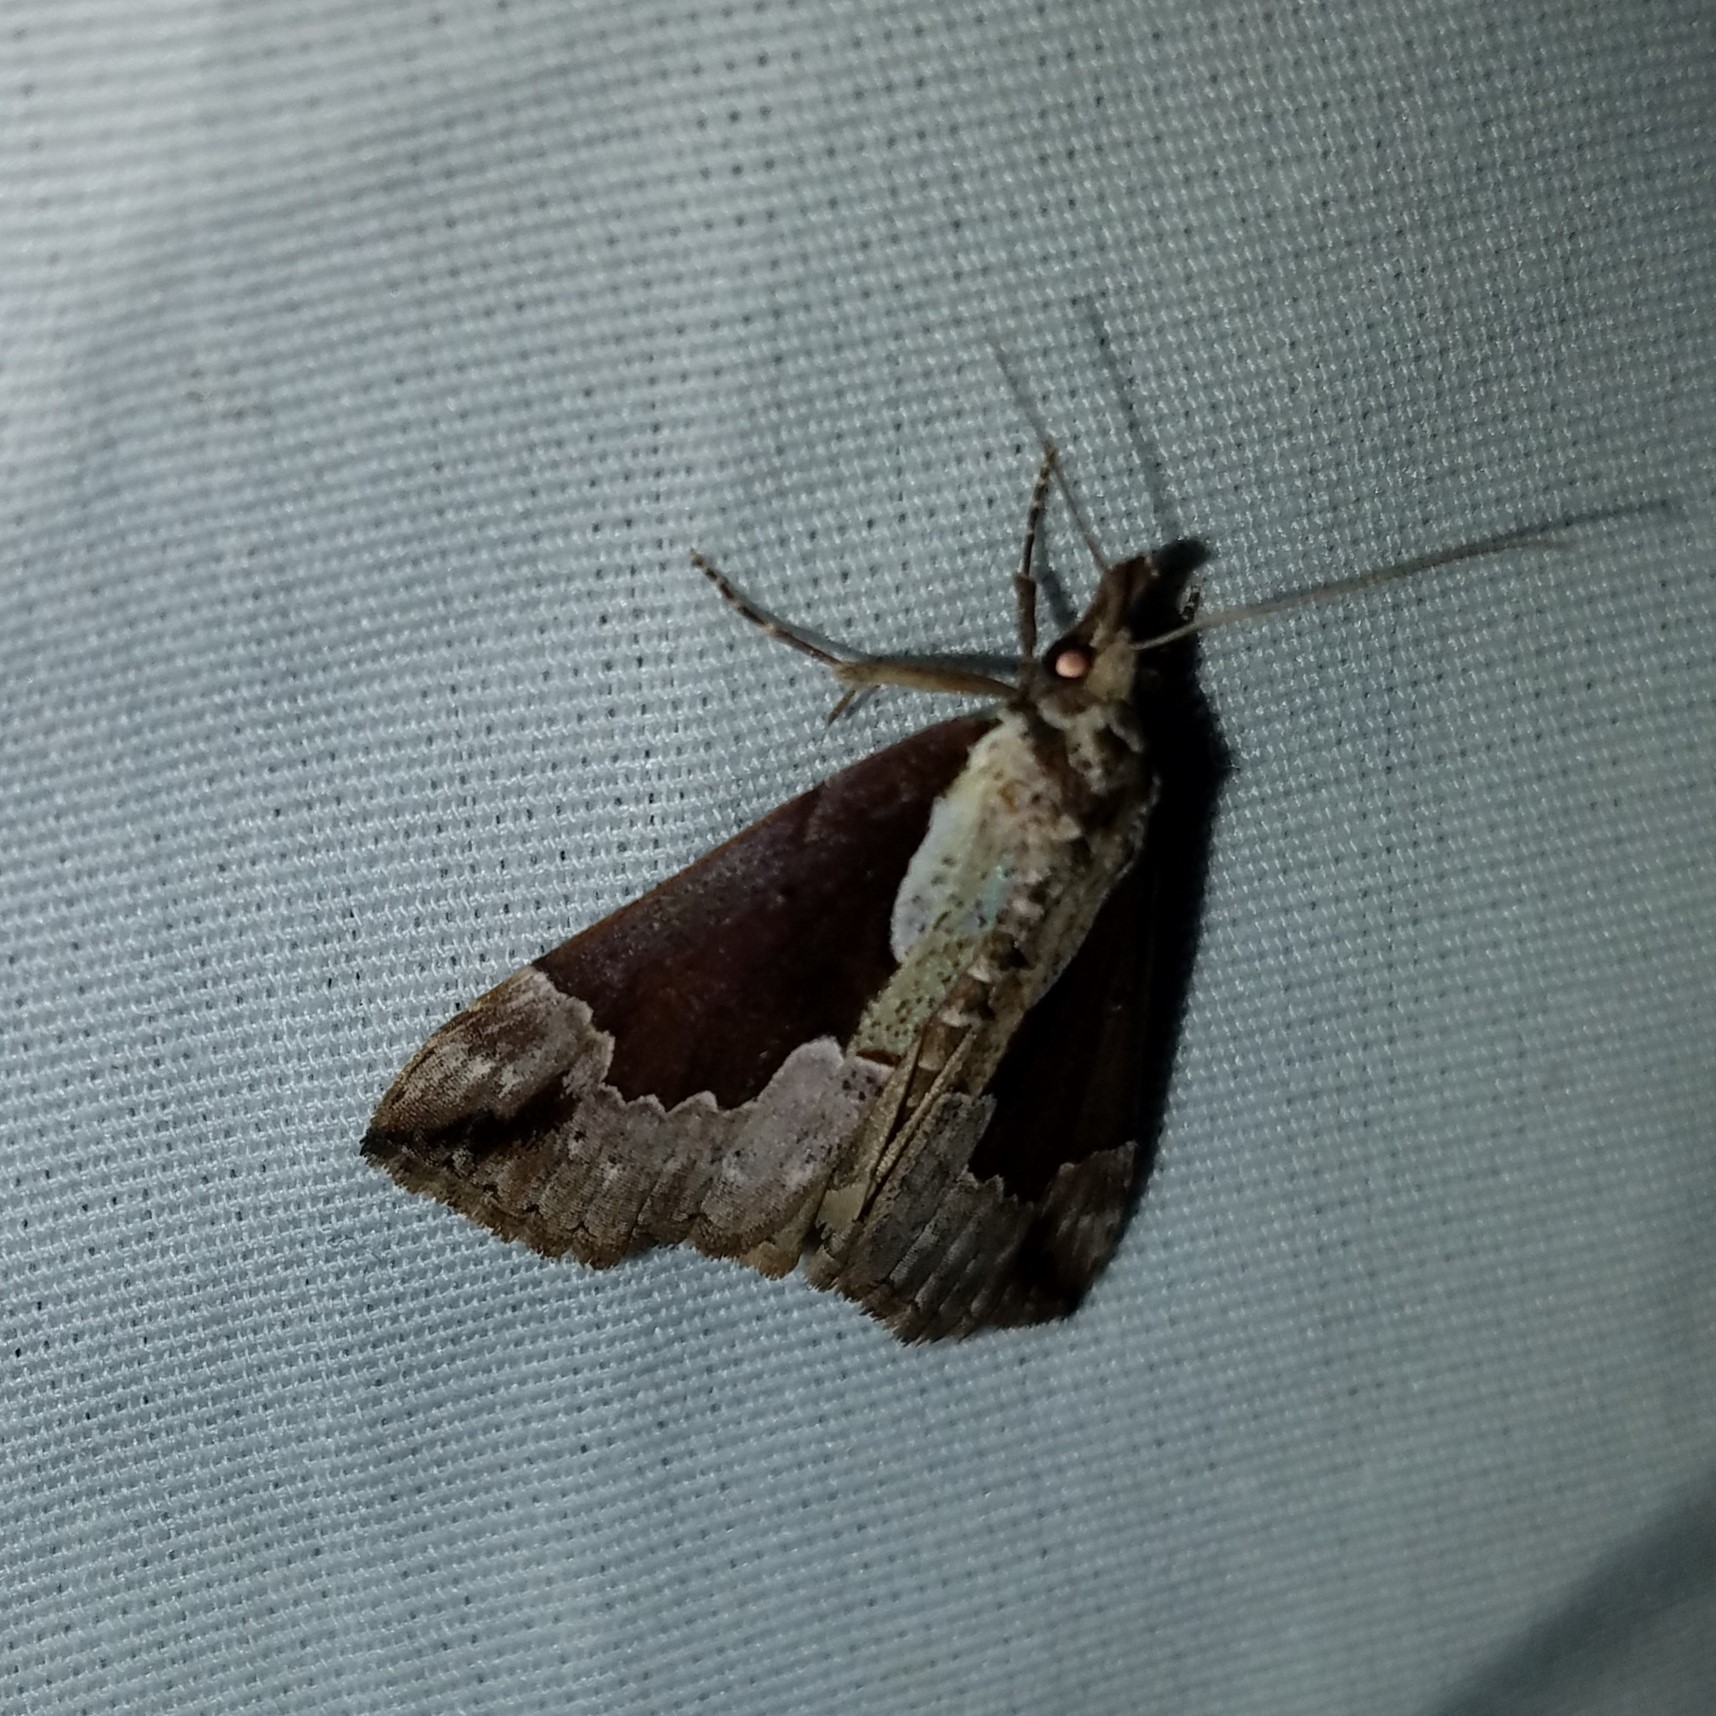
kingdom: Animalia
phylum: Arthropoda
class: Insecta
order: Lepidoptera
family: Erebidae
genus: Hypena
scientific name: Hypena baltimoralis
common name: Baltimore snout
